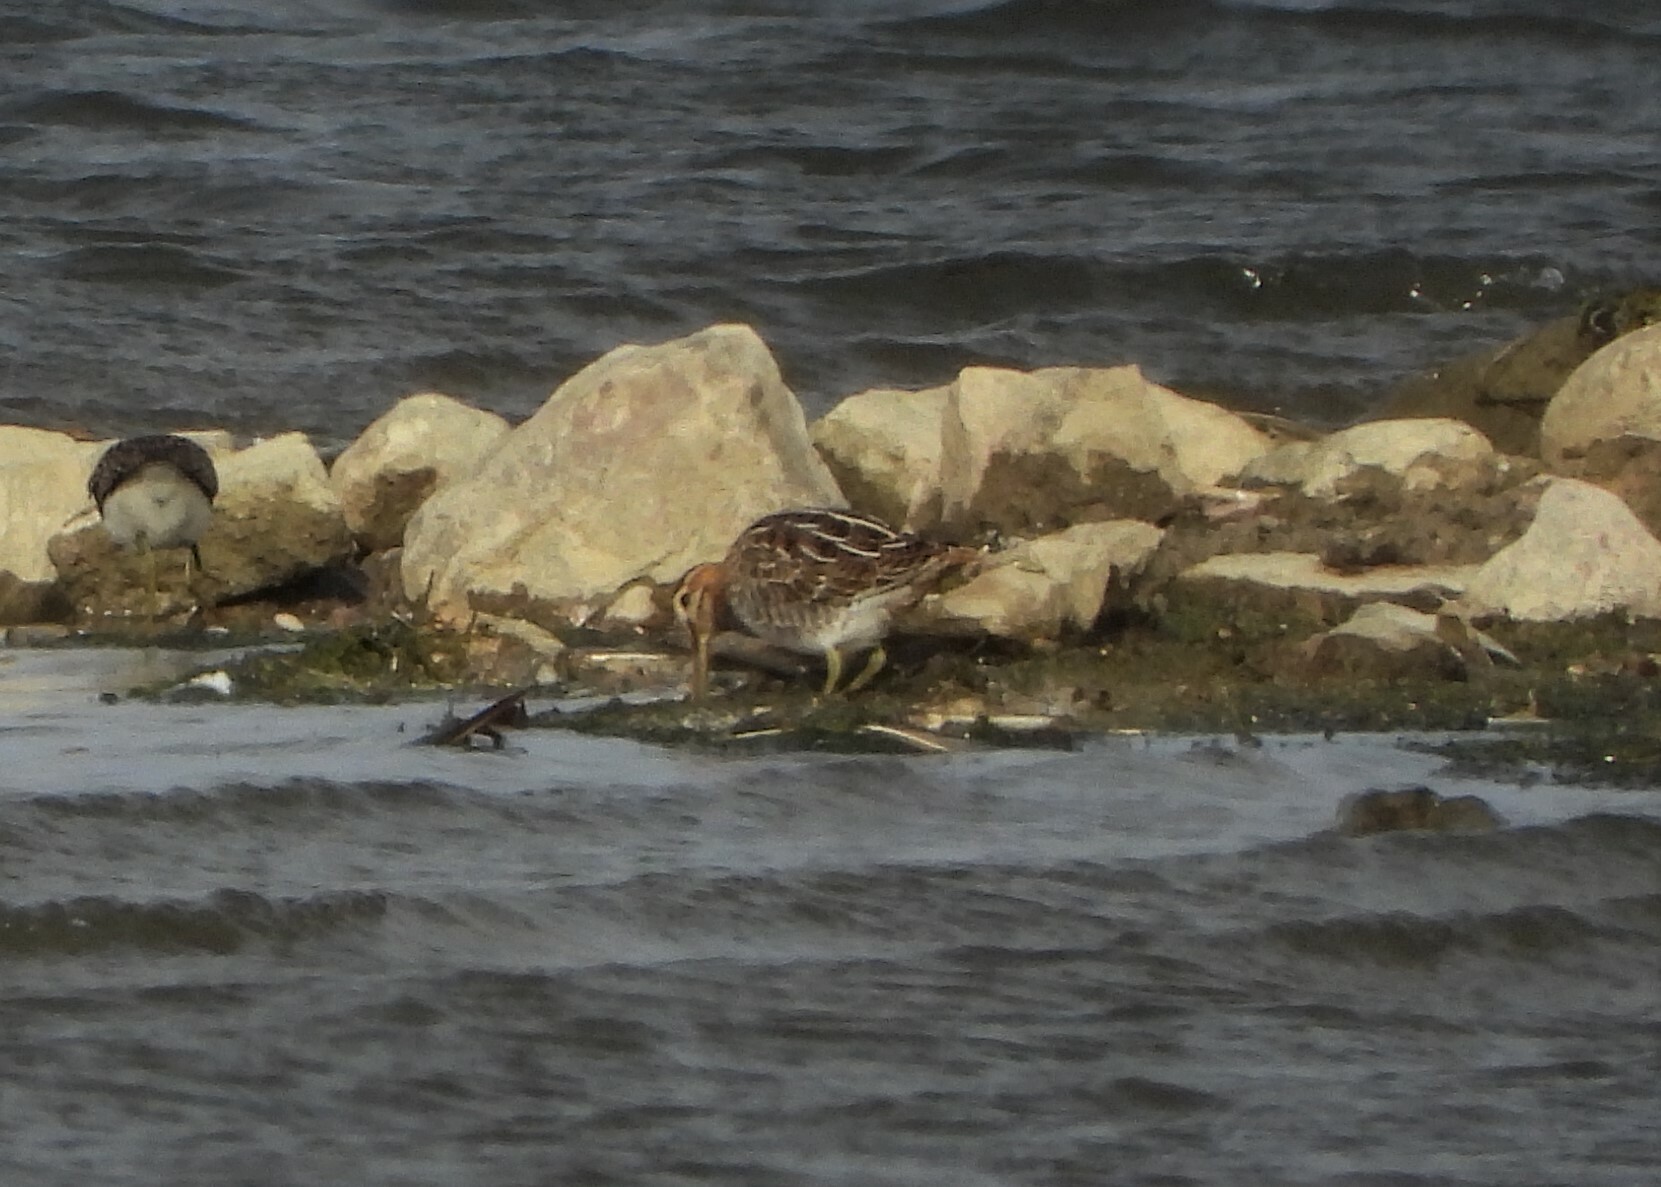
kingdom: Animalia
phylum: Chordata
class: Aves
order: Charadriiformes
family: Scolopacidae
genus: Gallinago
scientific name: Gallinago gallinago
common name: Common snipe
